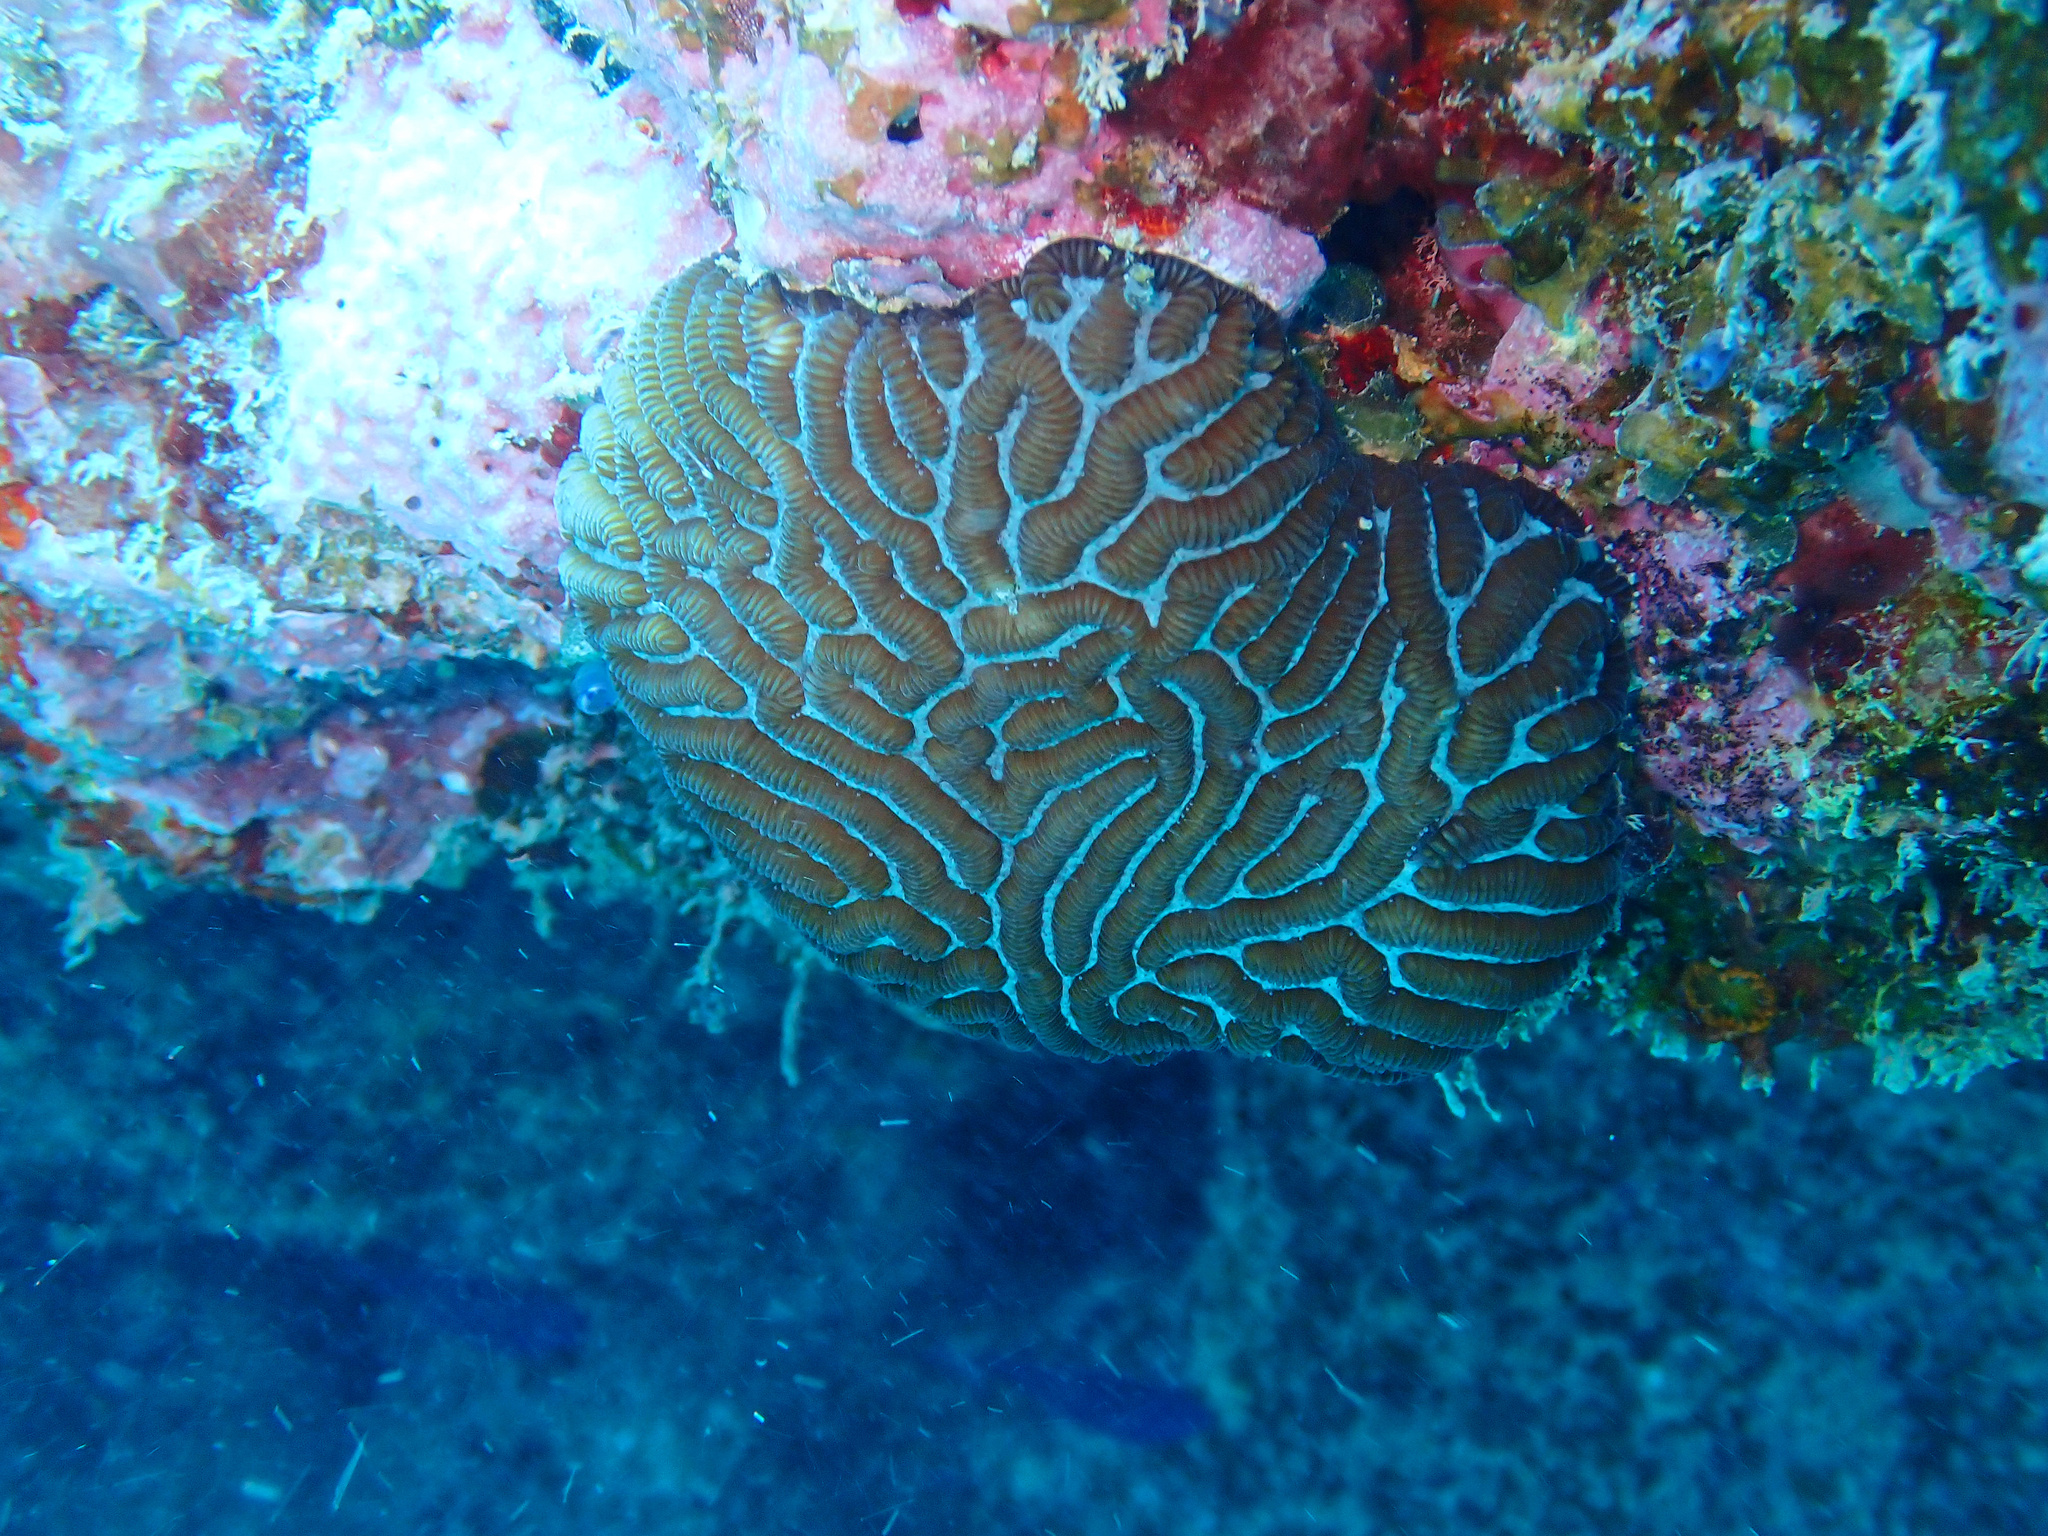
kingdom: Animalia
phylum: Cnidaria
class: Anthozoa
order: Scleractinia
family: Merulinidae
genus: Leptoria
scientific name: Leptoria phrygia
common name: Least valley coral
